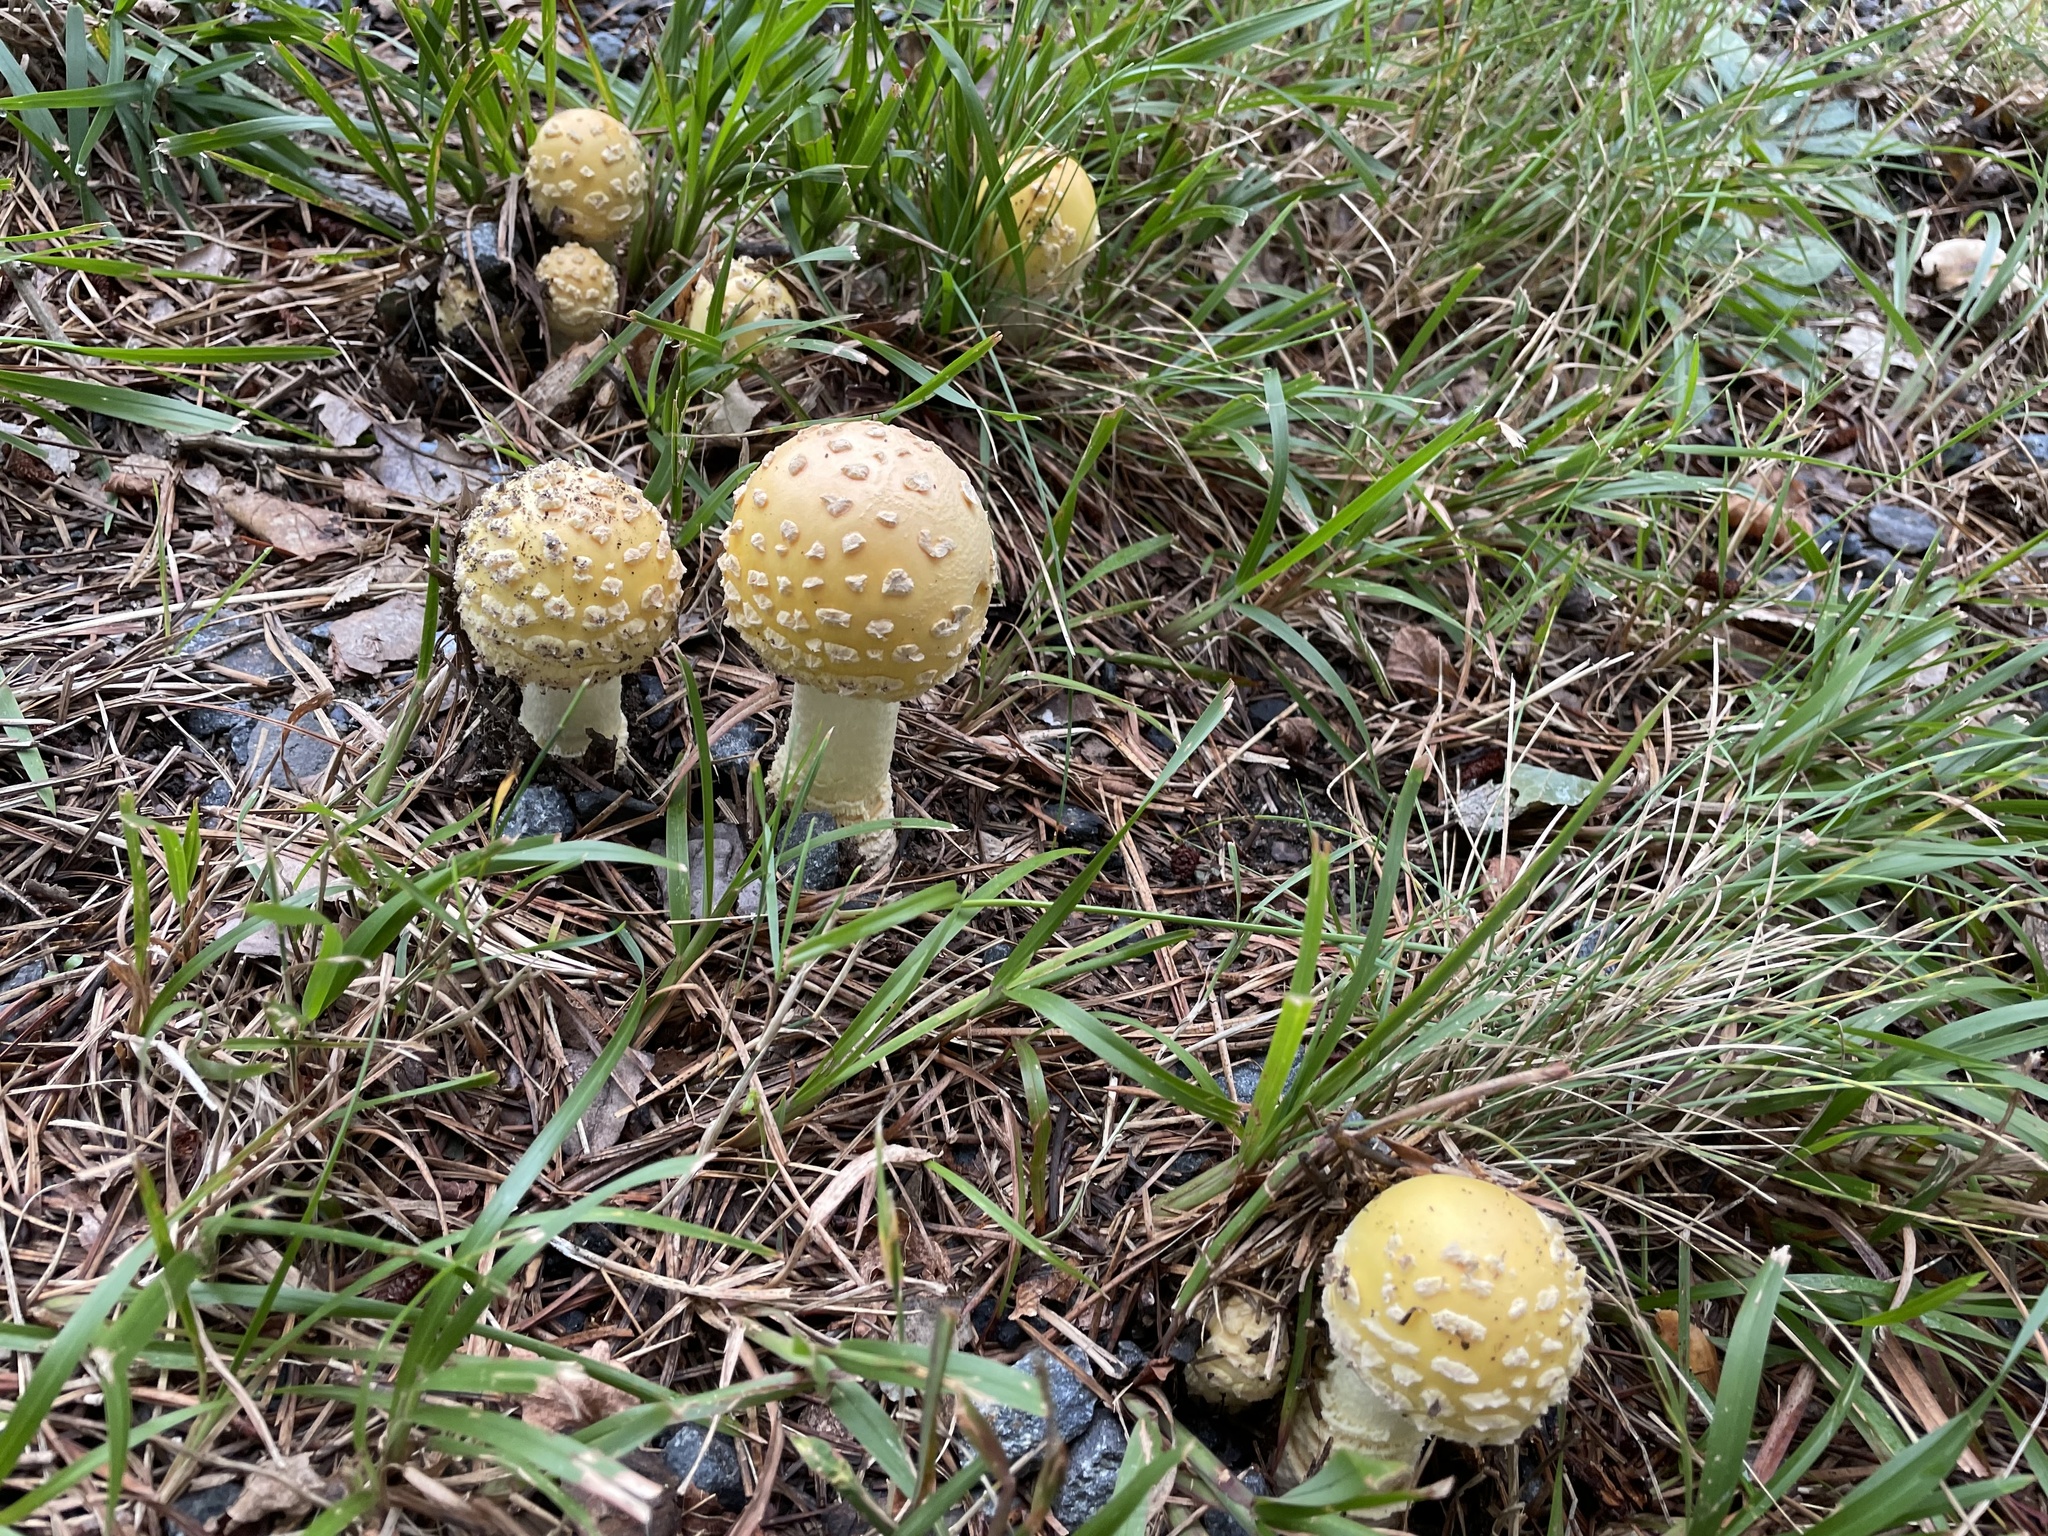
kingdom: Fungi
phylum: Basidiomycota
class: Agaricomycetes
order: Agaricales
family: Amanitaceae
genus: Amanita
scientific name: Amanita muscaria
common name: Fly agaric
